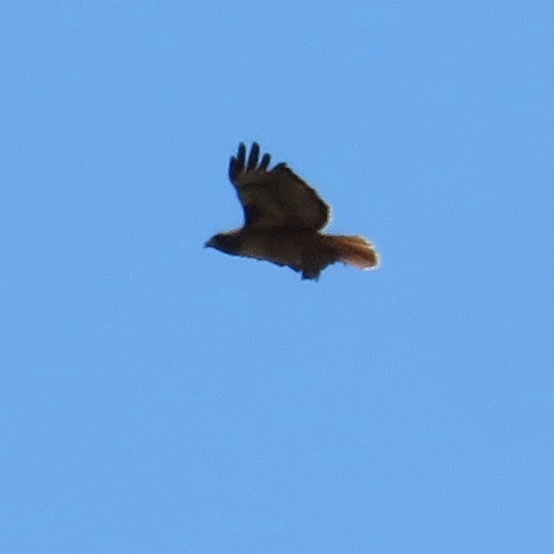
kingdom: Animalia
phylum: Chordata
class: Aves
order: Accipitriformes
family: Accipitridae
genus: Buteo
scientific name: Buteo jamaicensis
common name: Red-tailed hawk
